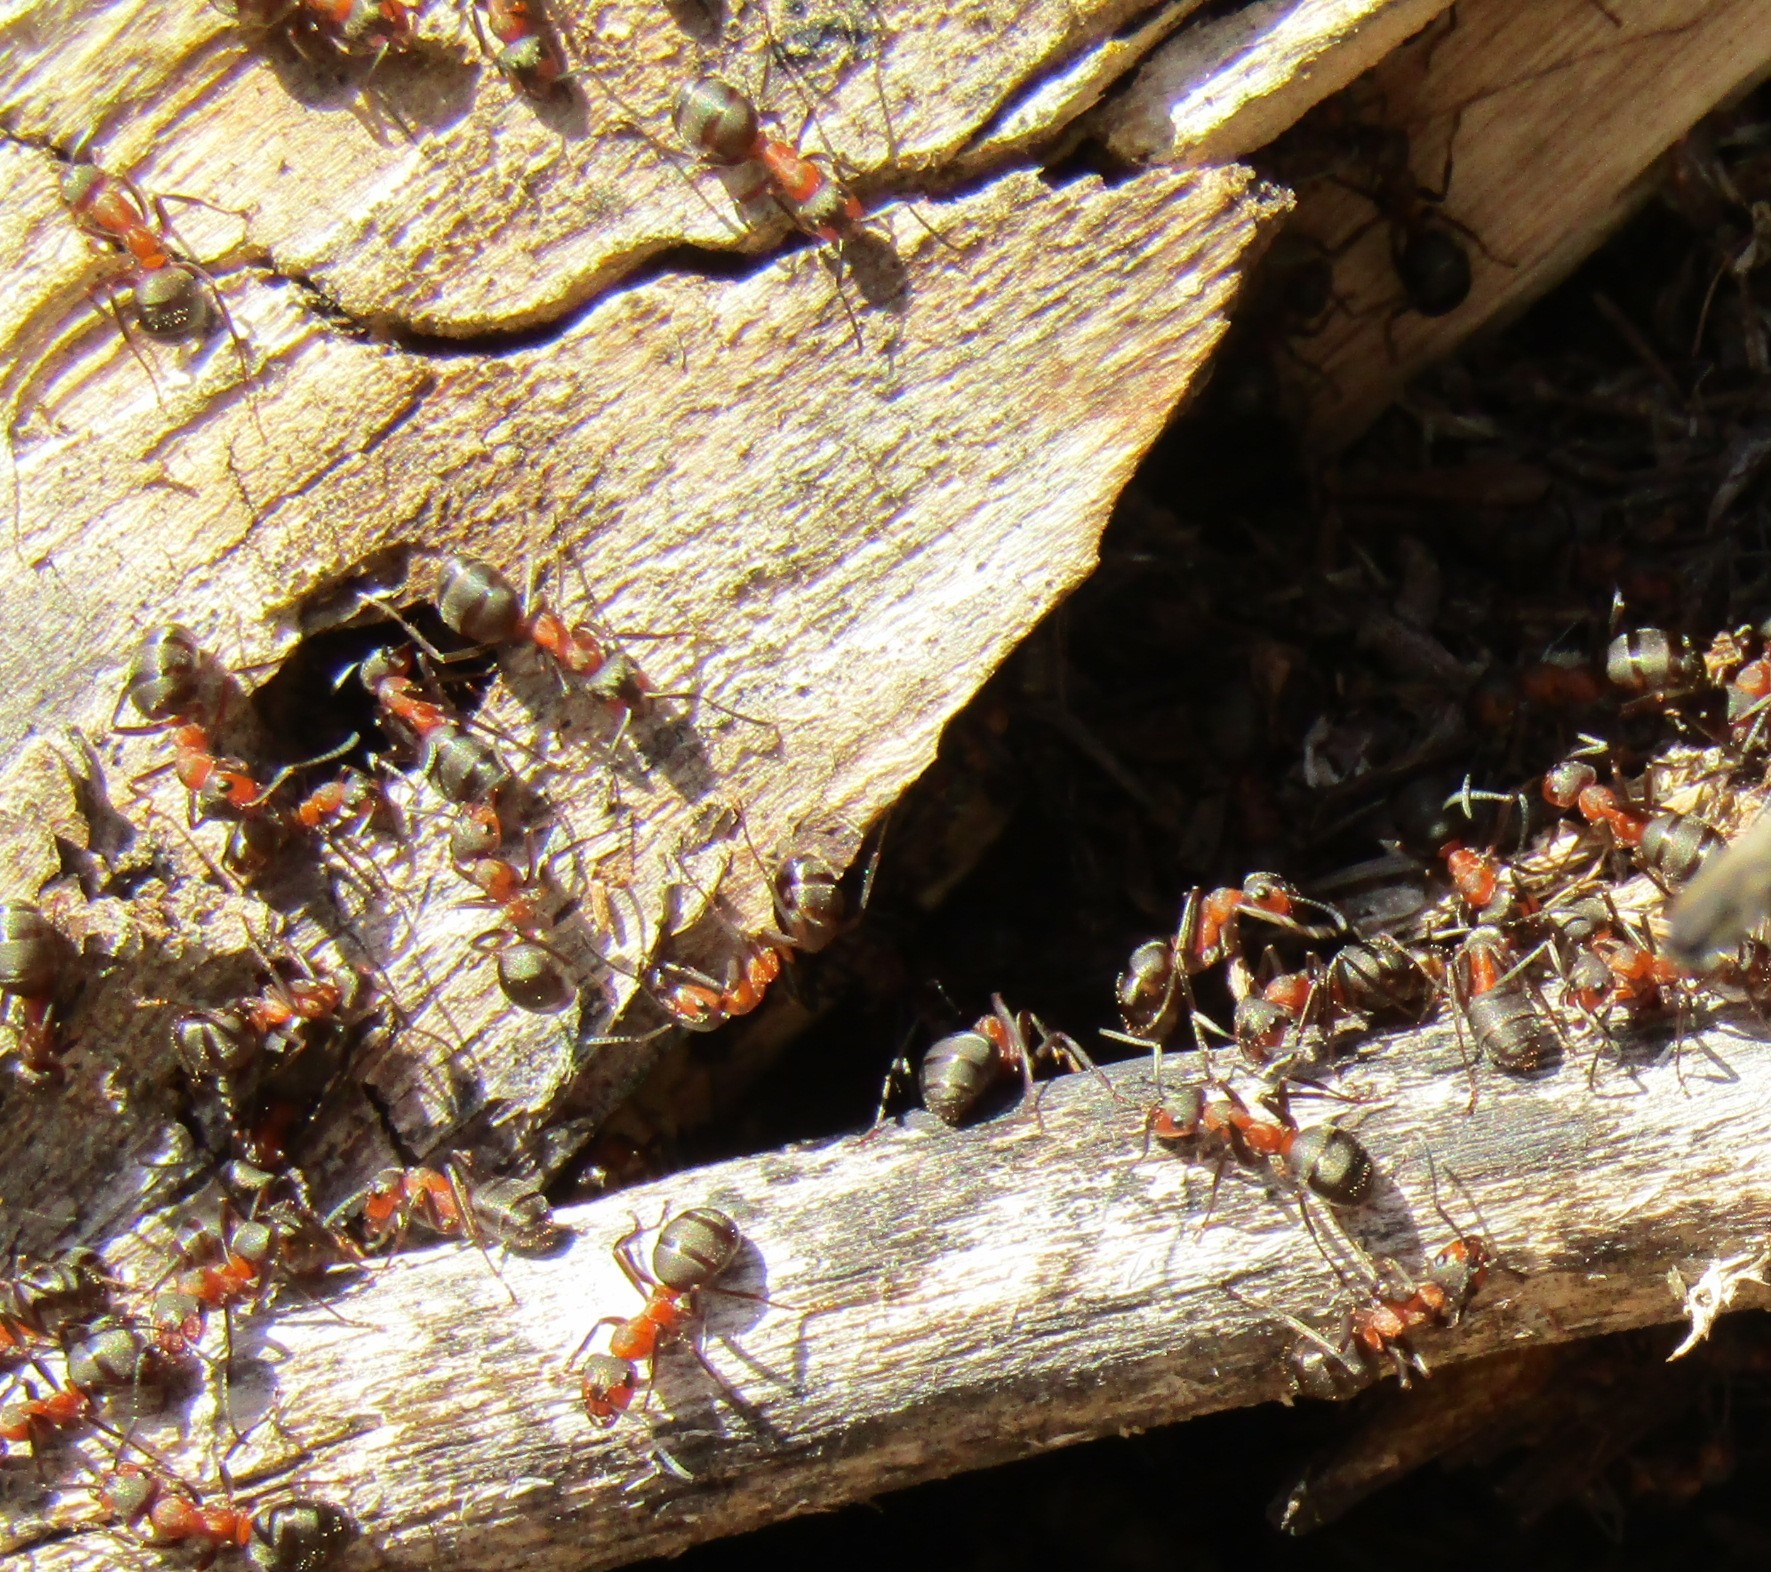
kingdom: Animalia
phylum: Arthropoda
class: Insecta
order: Hymenoptera
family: Formicidae
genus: Formica
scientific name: Formica rufa
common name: Red wood ant
